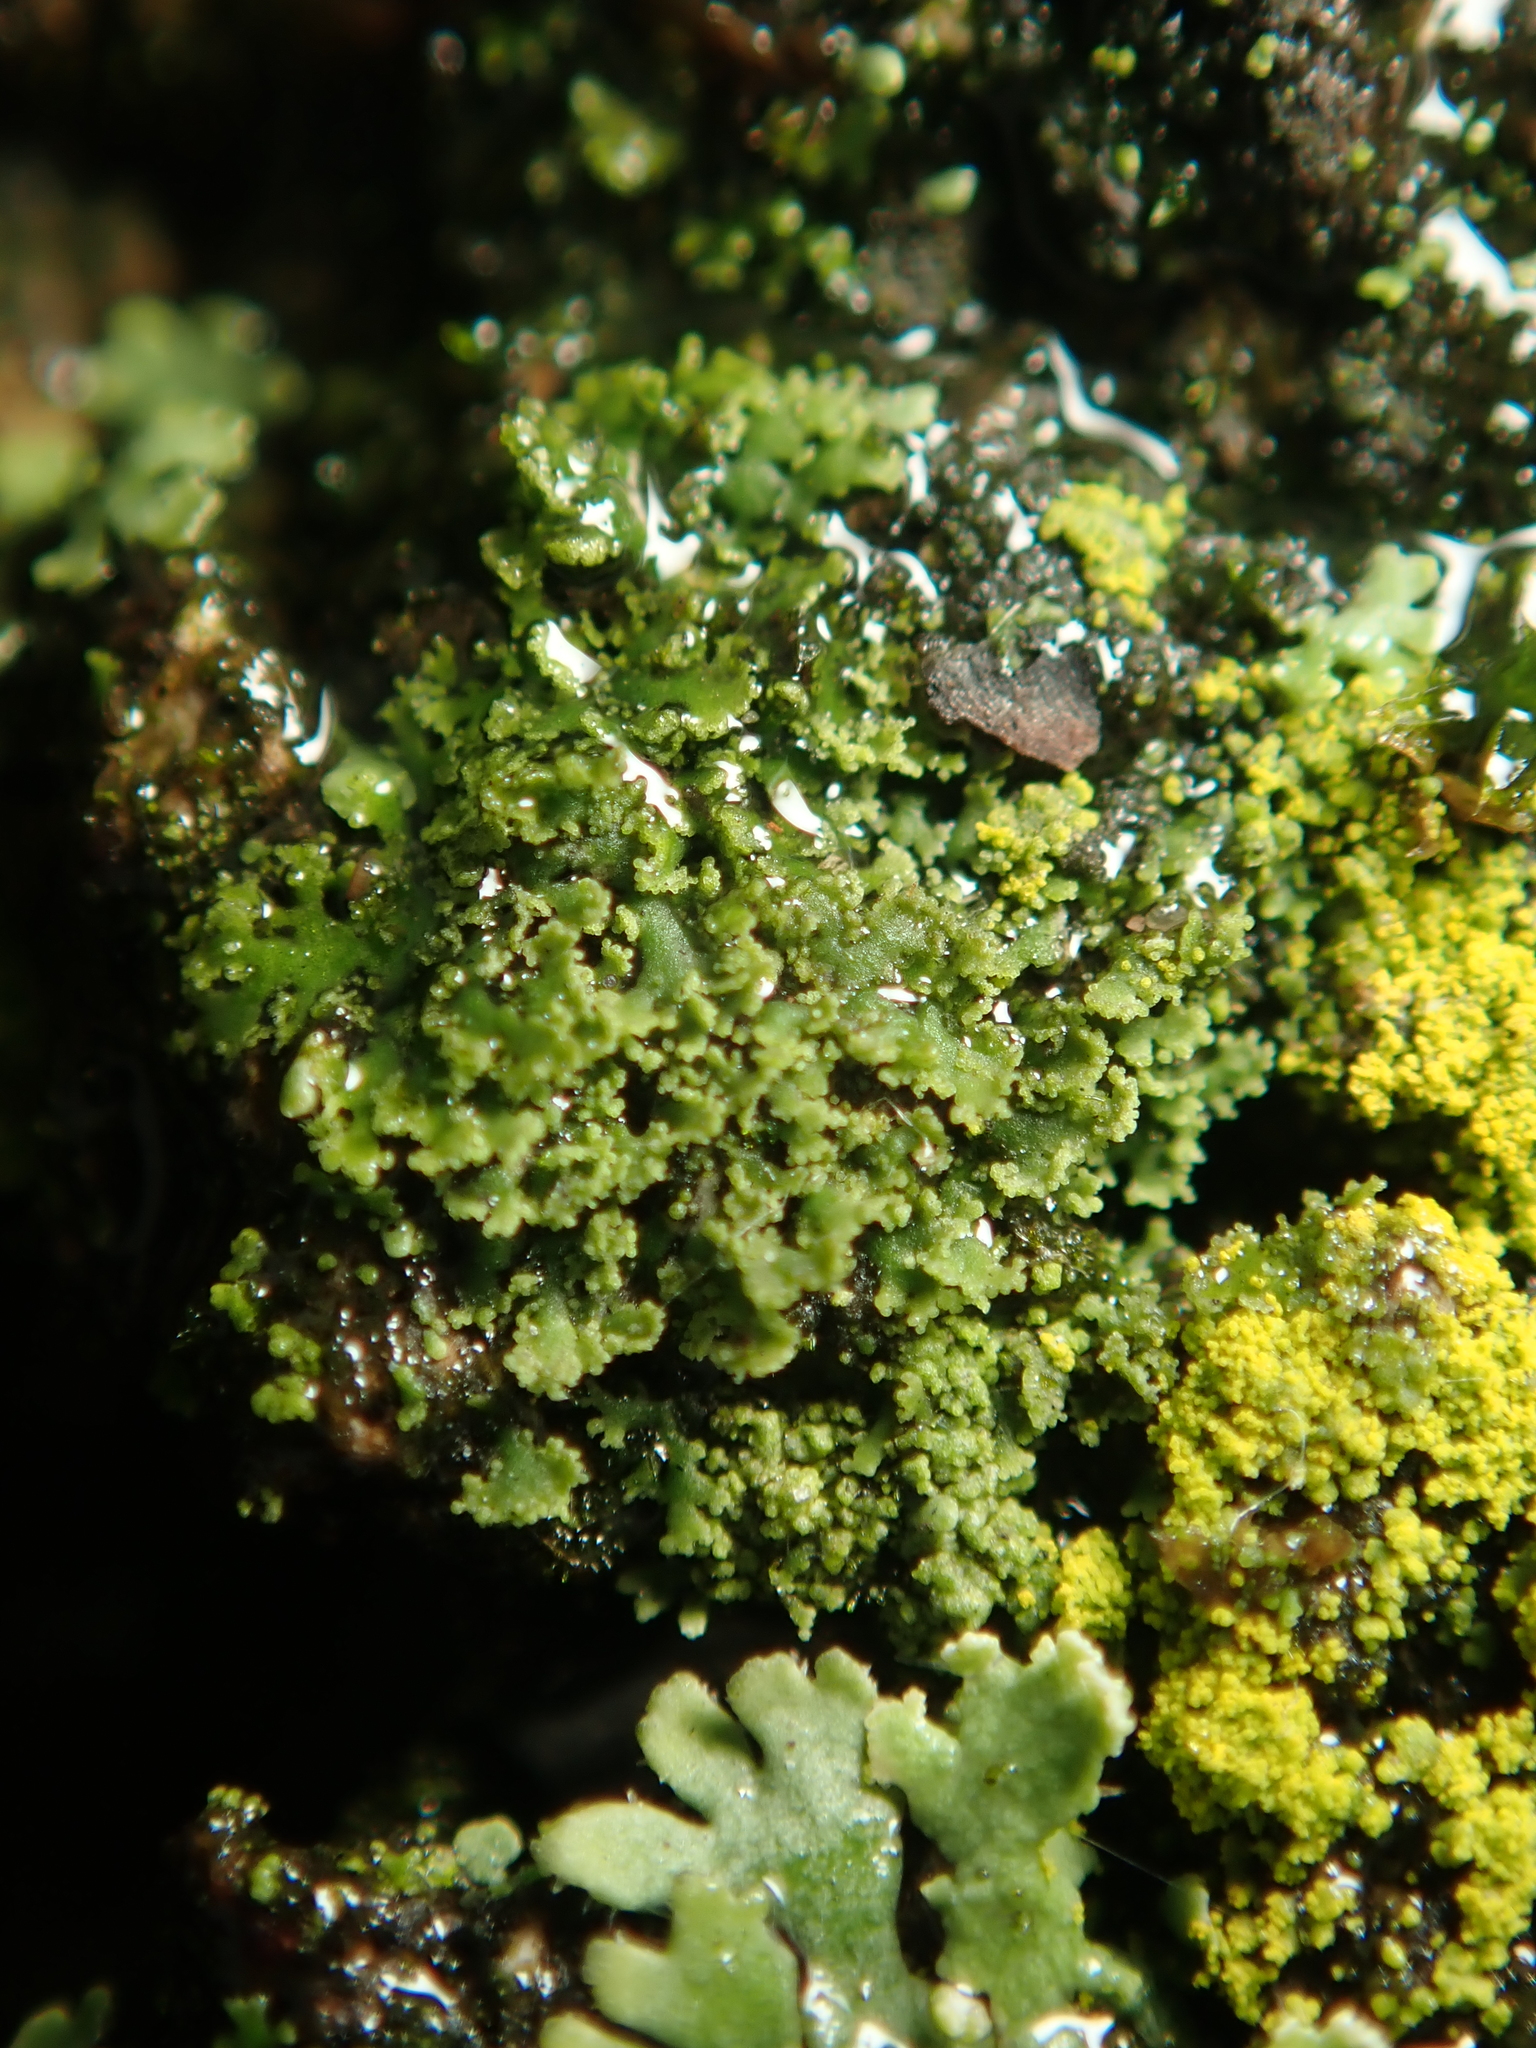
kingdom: Fungi
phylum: Ascomycota
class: Lecanoromycetes
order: Caliciales
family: Physciaceae
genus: Physciella
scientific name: Physciella nigricans
